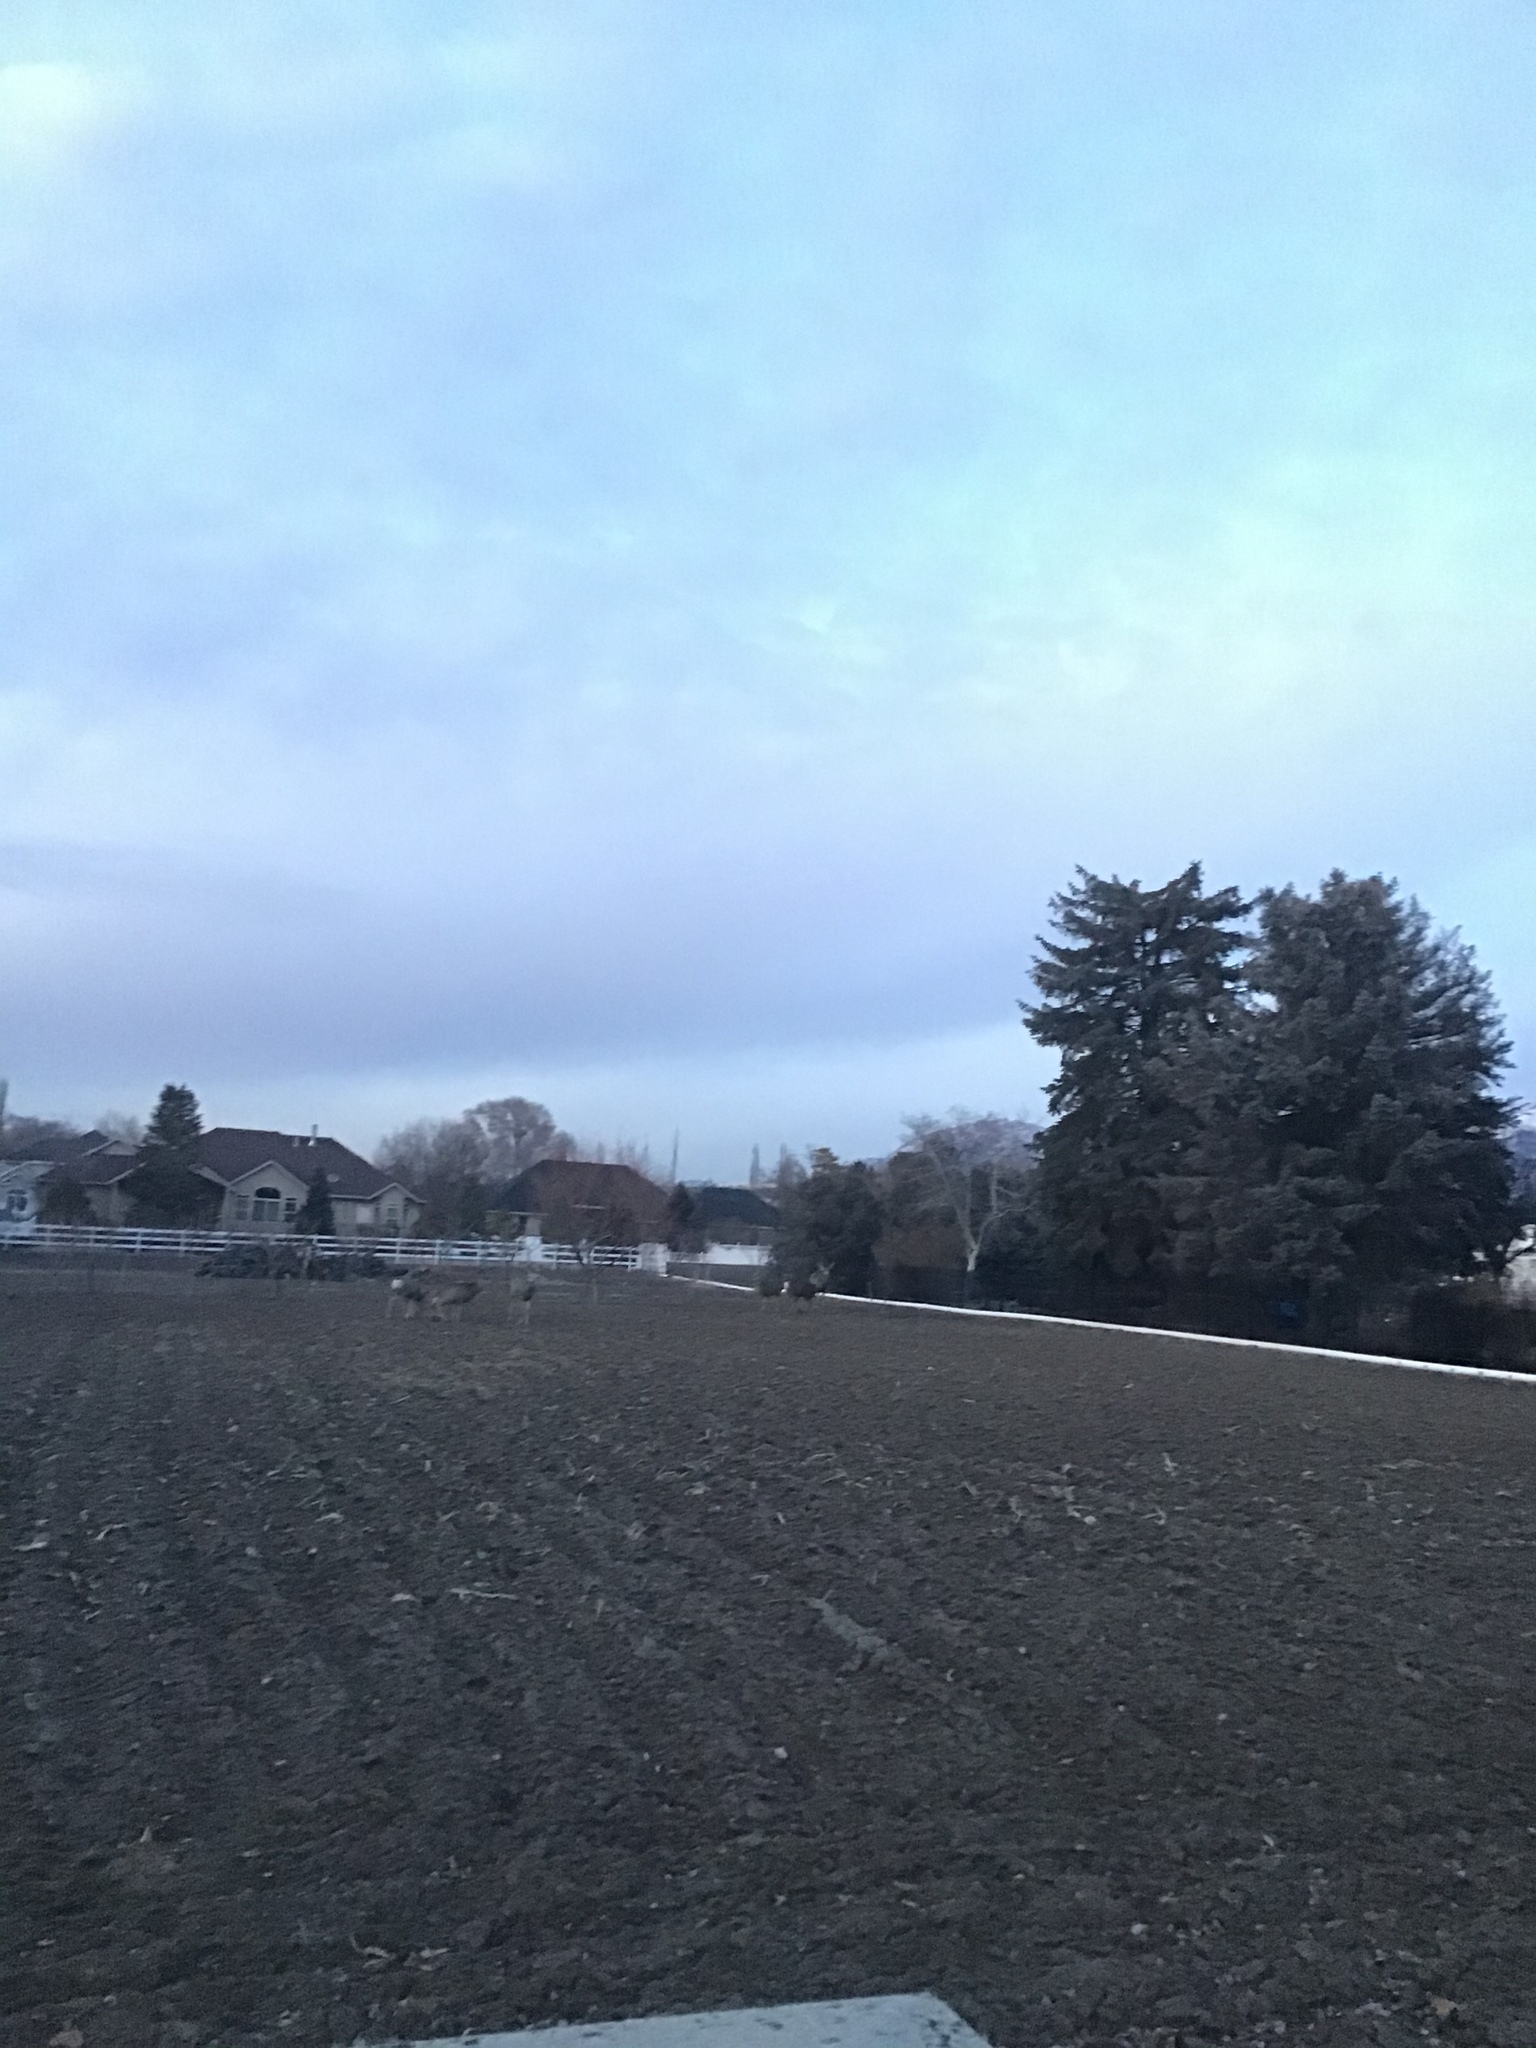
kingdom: Animalia
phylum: Chordata
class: Mammalia
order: Artiodactyla
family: Cervidae
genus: Odocoileus
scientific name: Odocoileus hemionus
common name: Mule deer
